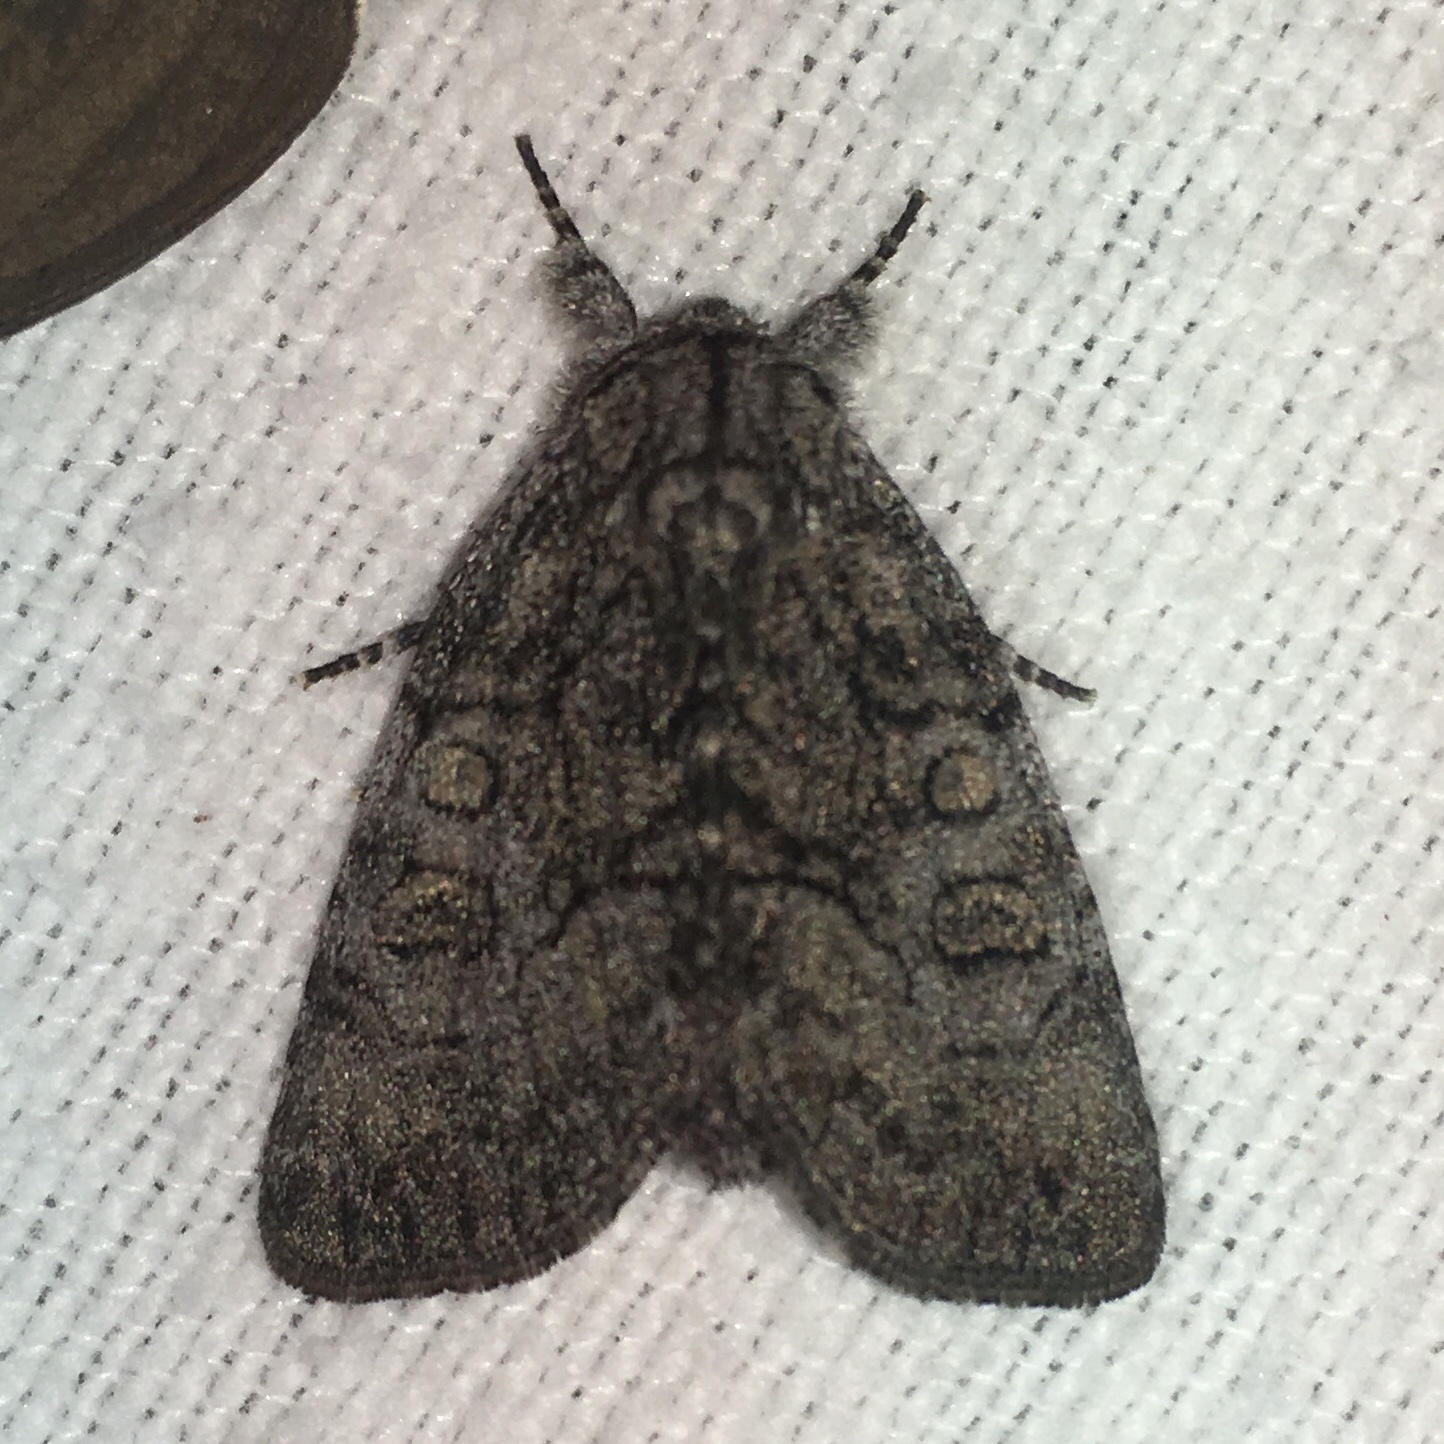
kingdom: Animalia
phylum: Arthropoda
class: Insecta
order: Lepidoptera
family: Noctuidae
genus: Raphia
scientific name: Raphia frater
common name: Brother
